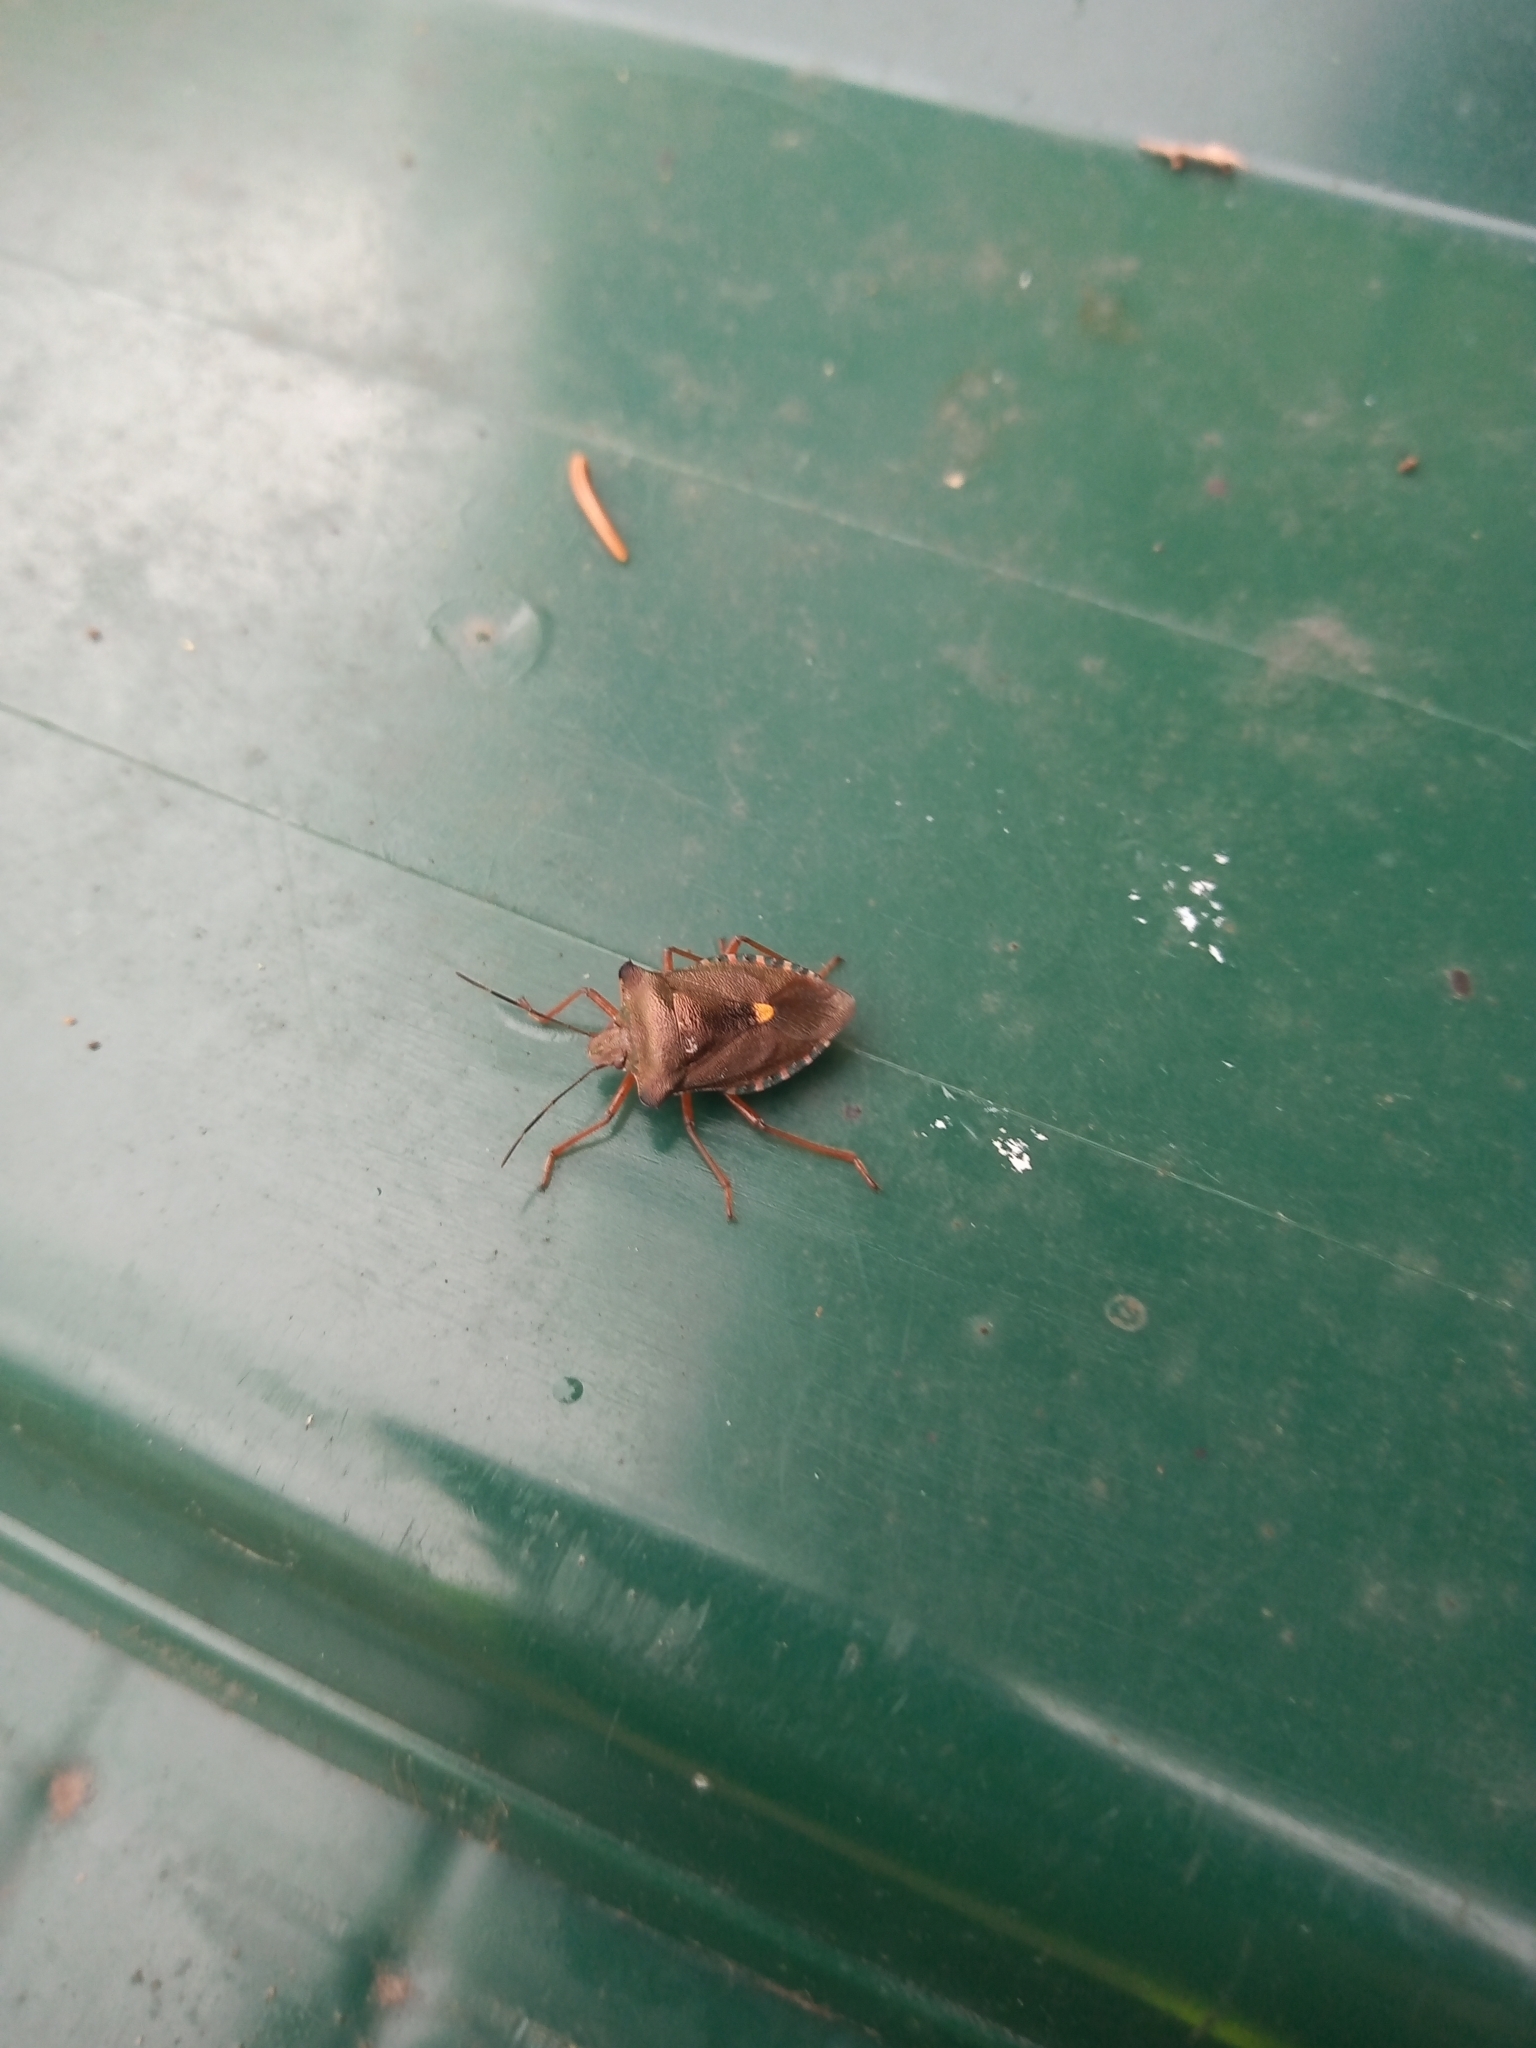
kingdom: Animalia
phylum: Arthropoda
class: Insecta
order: Hemiptera
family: Pentatomidae
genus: Pentatoma
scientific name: Pentatoma rufipes
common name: Forest bug
